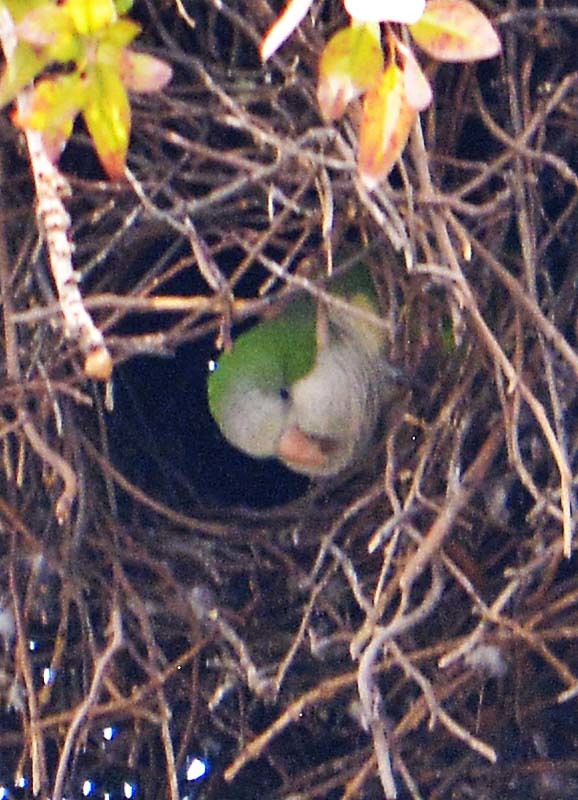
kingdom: Animalia
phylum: Chordata
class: Aves
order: Psittaciformes
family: Psittacidae
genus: Myiopsitta
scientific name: Myiopsitta monachus
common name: Monk parakeet
